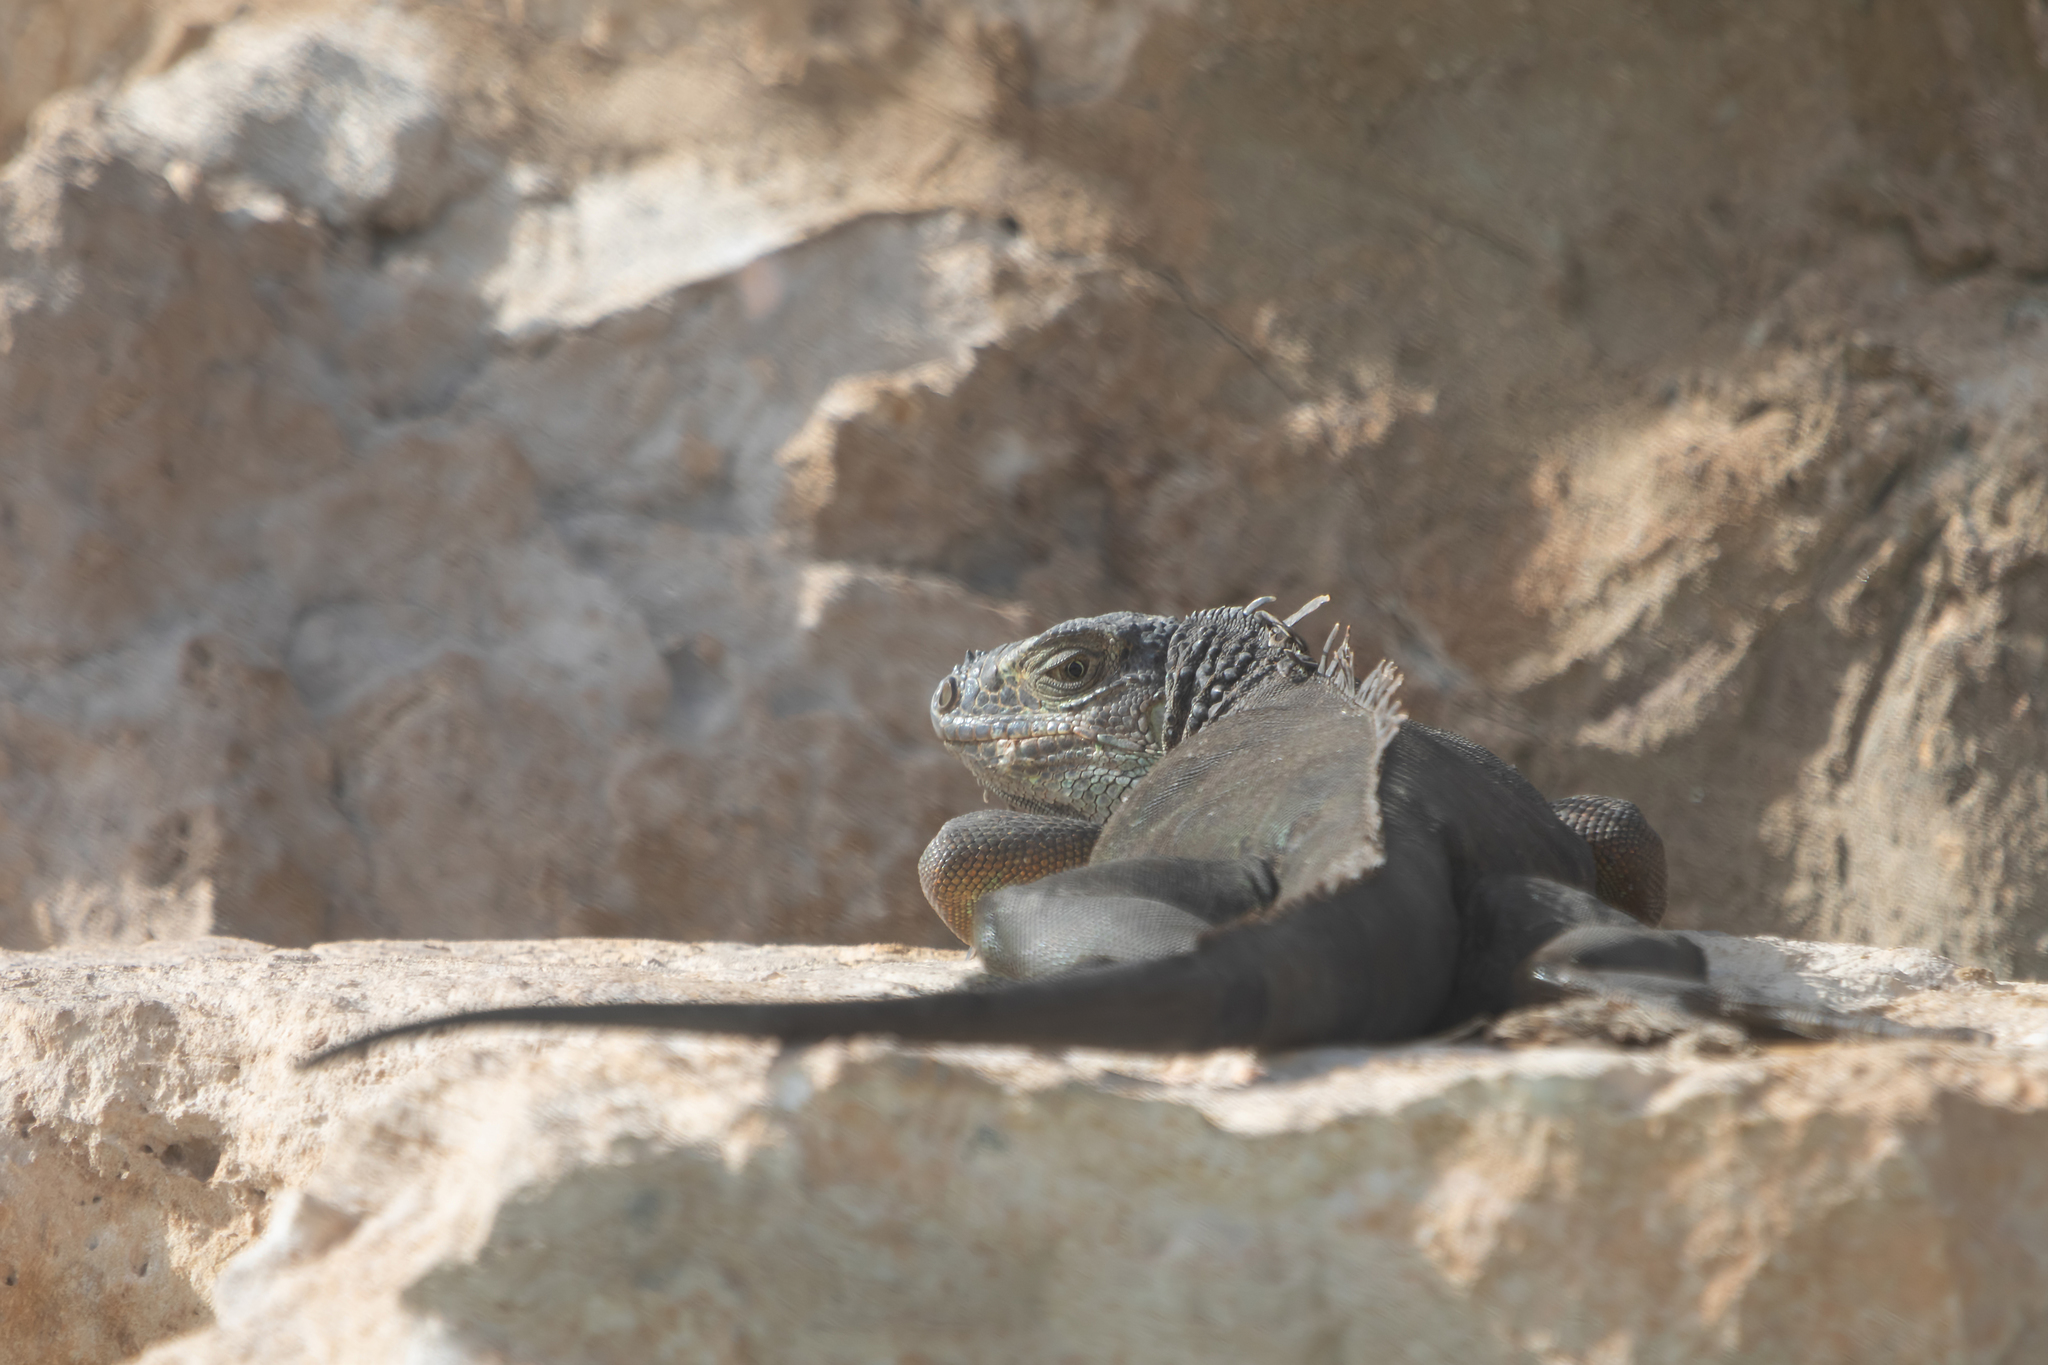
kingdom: Animalia
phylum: Chordata
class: Squamata
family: Iguanidae
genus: Iguana
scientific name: Iguana iguana
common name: Green iguana
